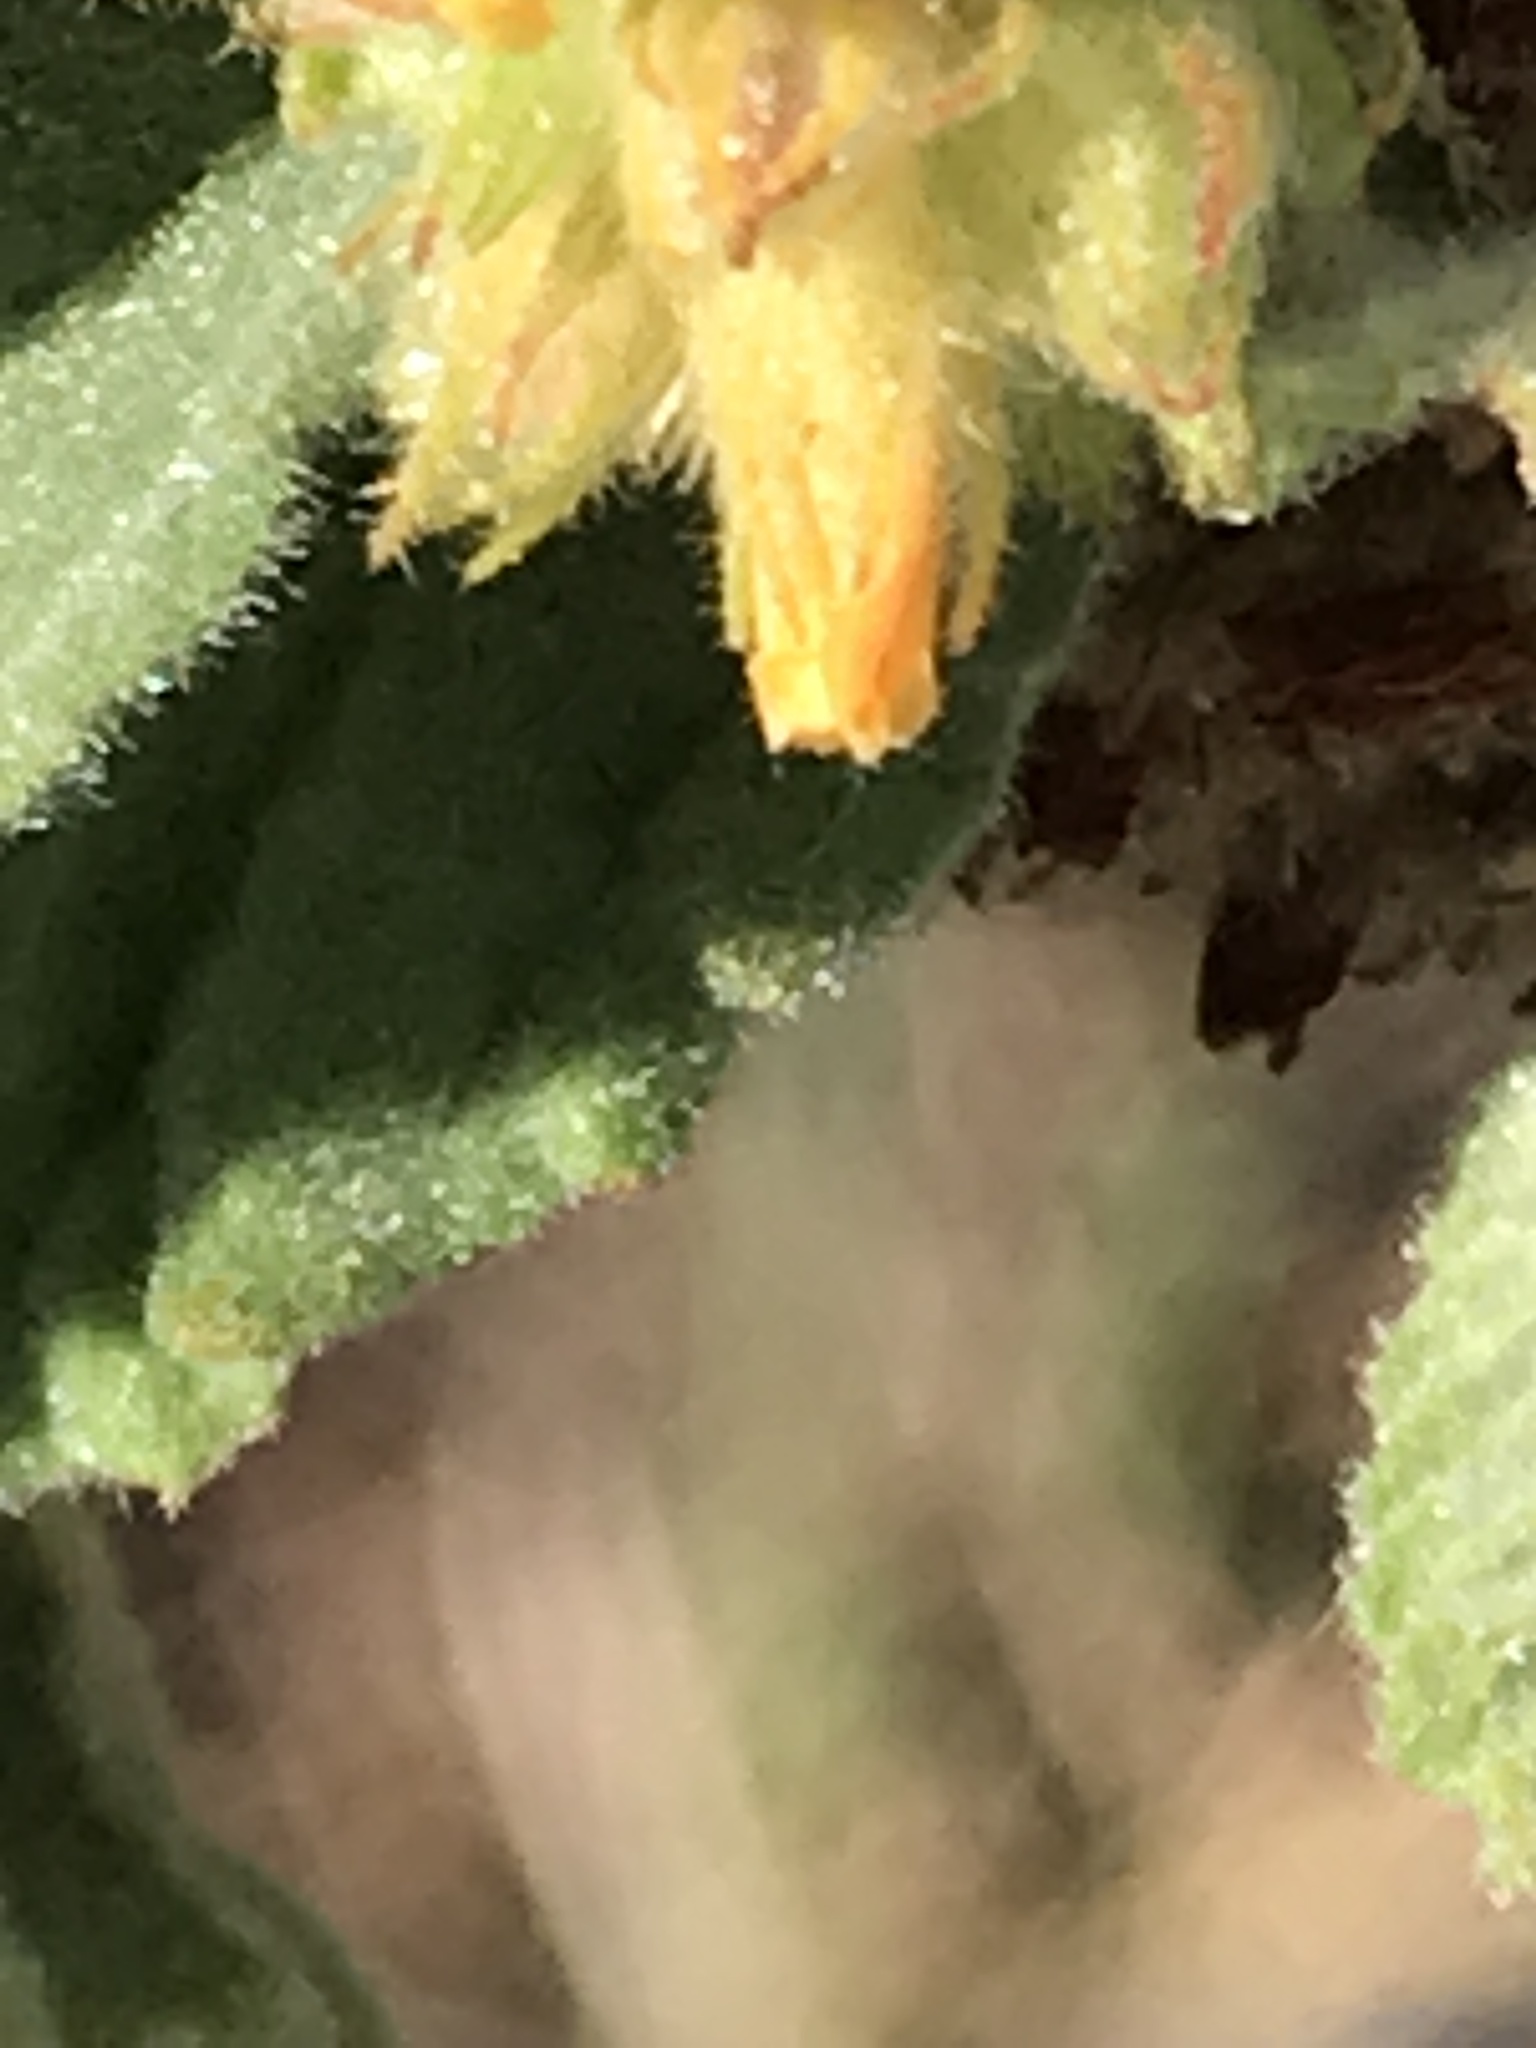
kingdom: Plantae
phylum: Tracheophyta
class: Magnoliopsida
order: Malvales
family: Malvaceae
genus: Waltheria
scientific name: Waltheria indica
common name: Leather-coat
